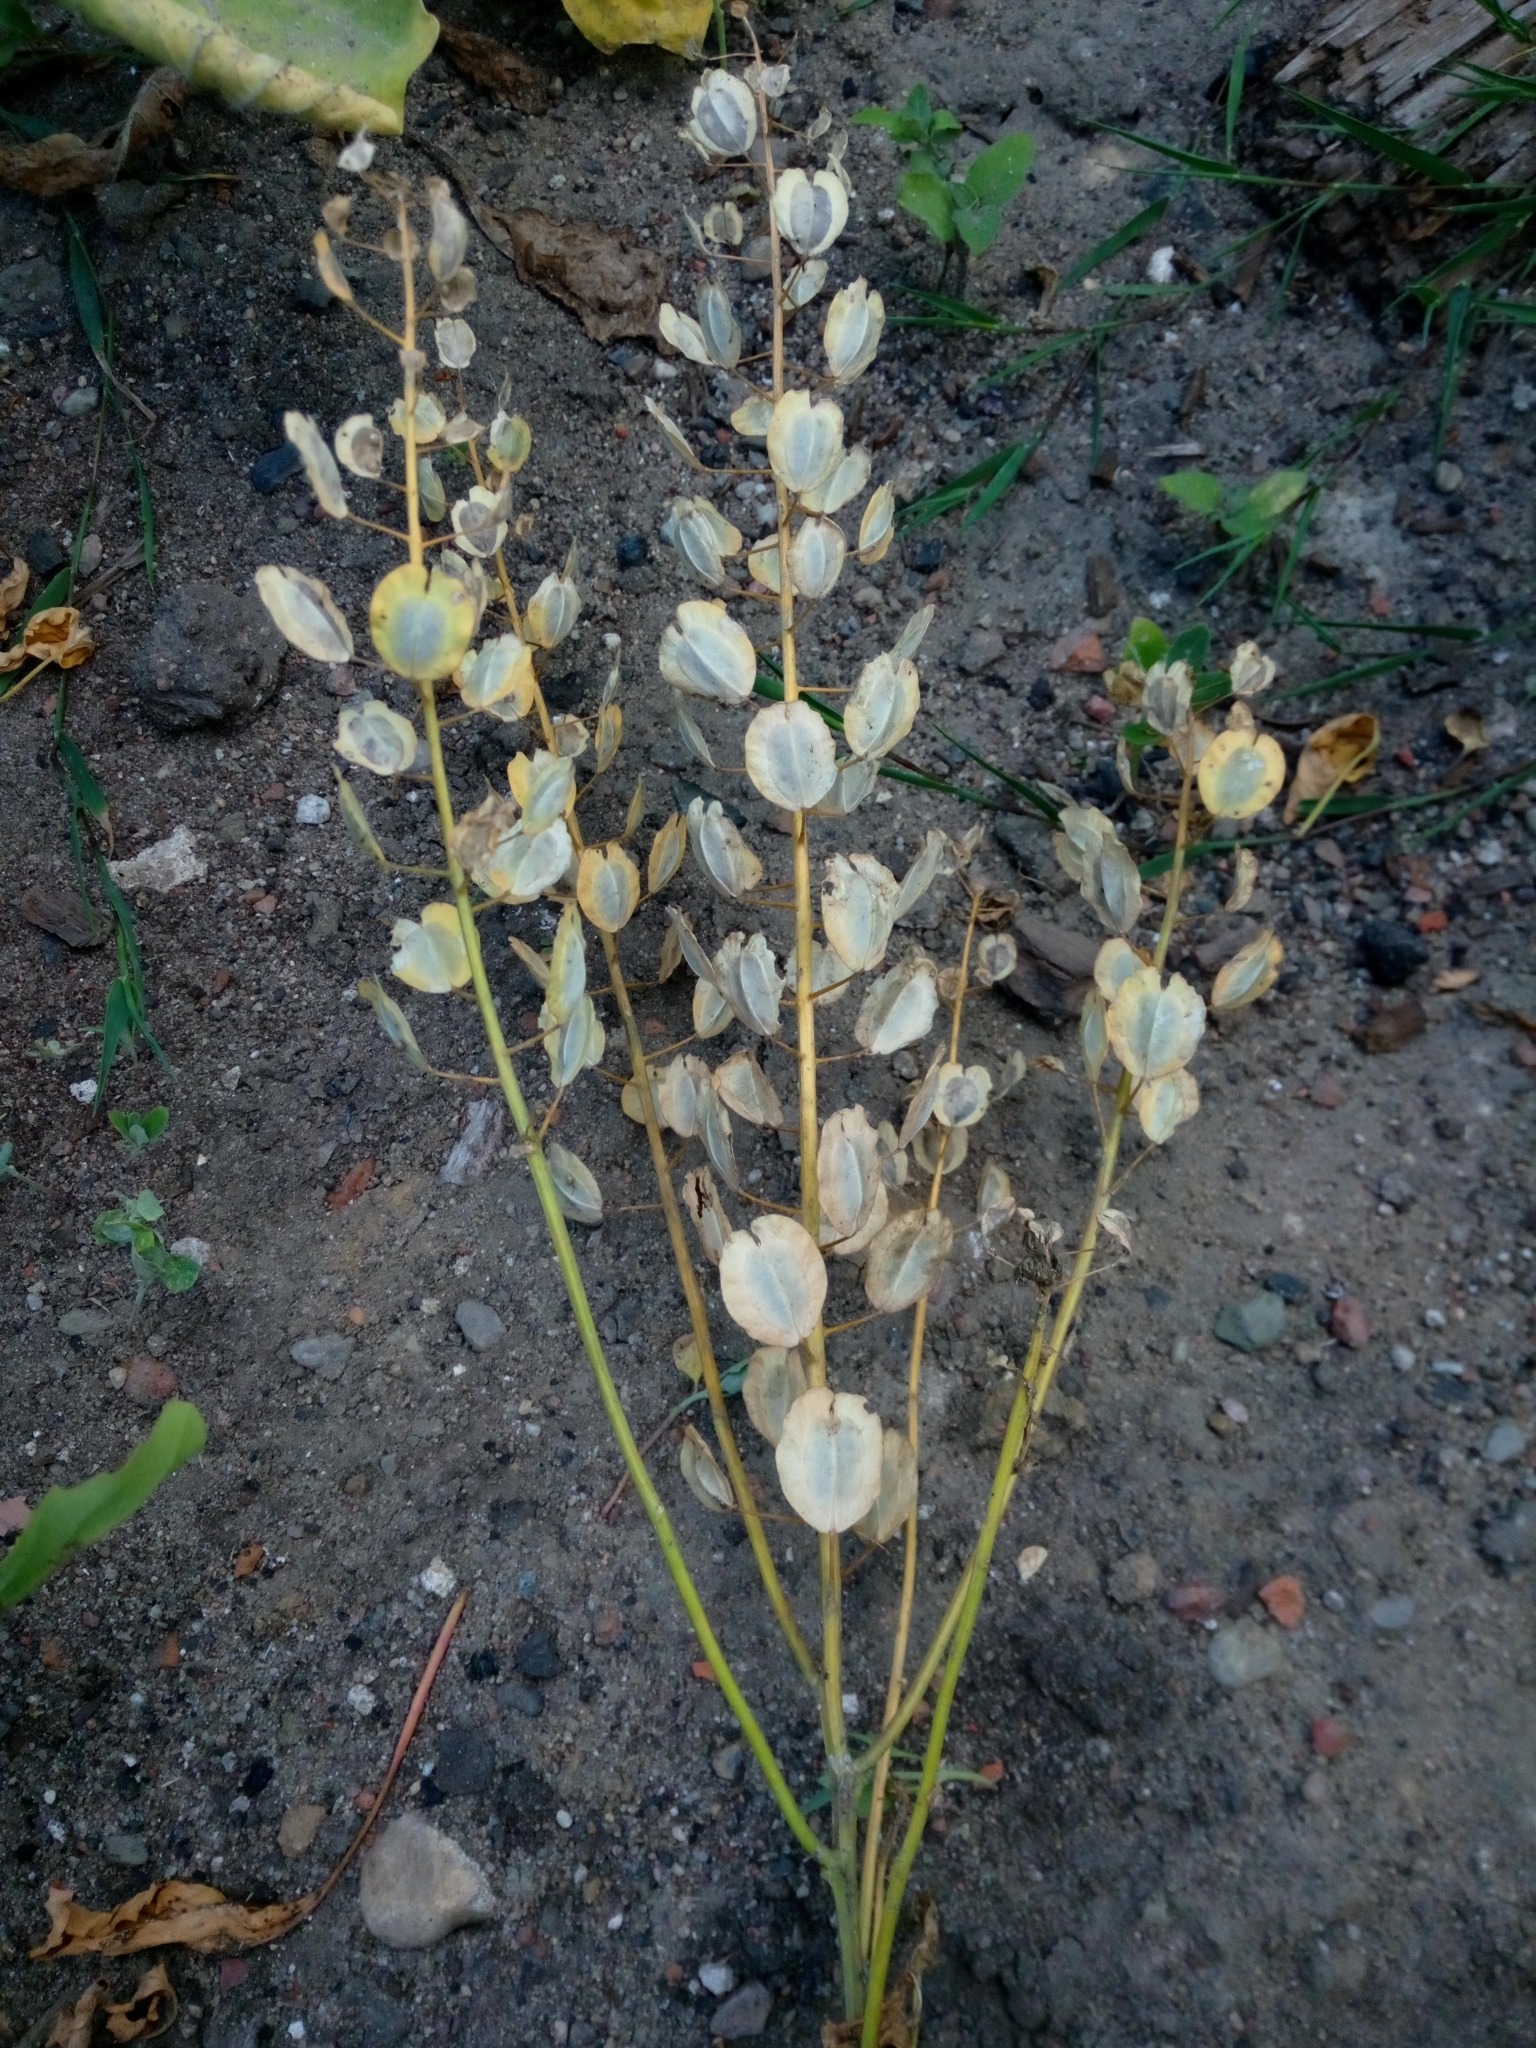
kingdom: Plantae
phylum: Tracheophyta
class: Magnoliopsida
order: Brassicales
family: Brassicaceae
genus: Thlaspi
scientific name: Thlaspi arvense
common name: Field pennycress
